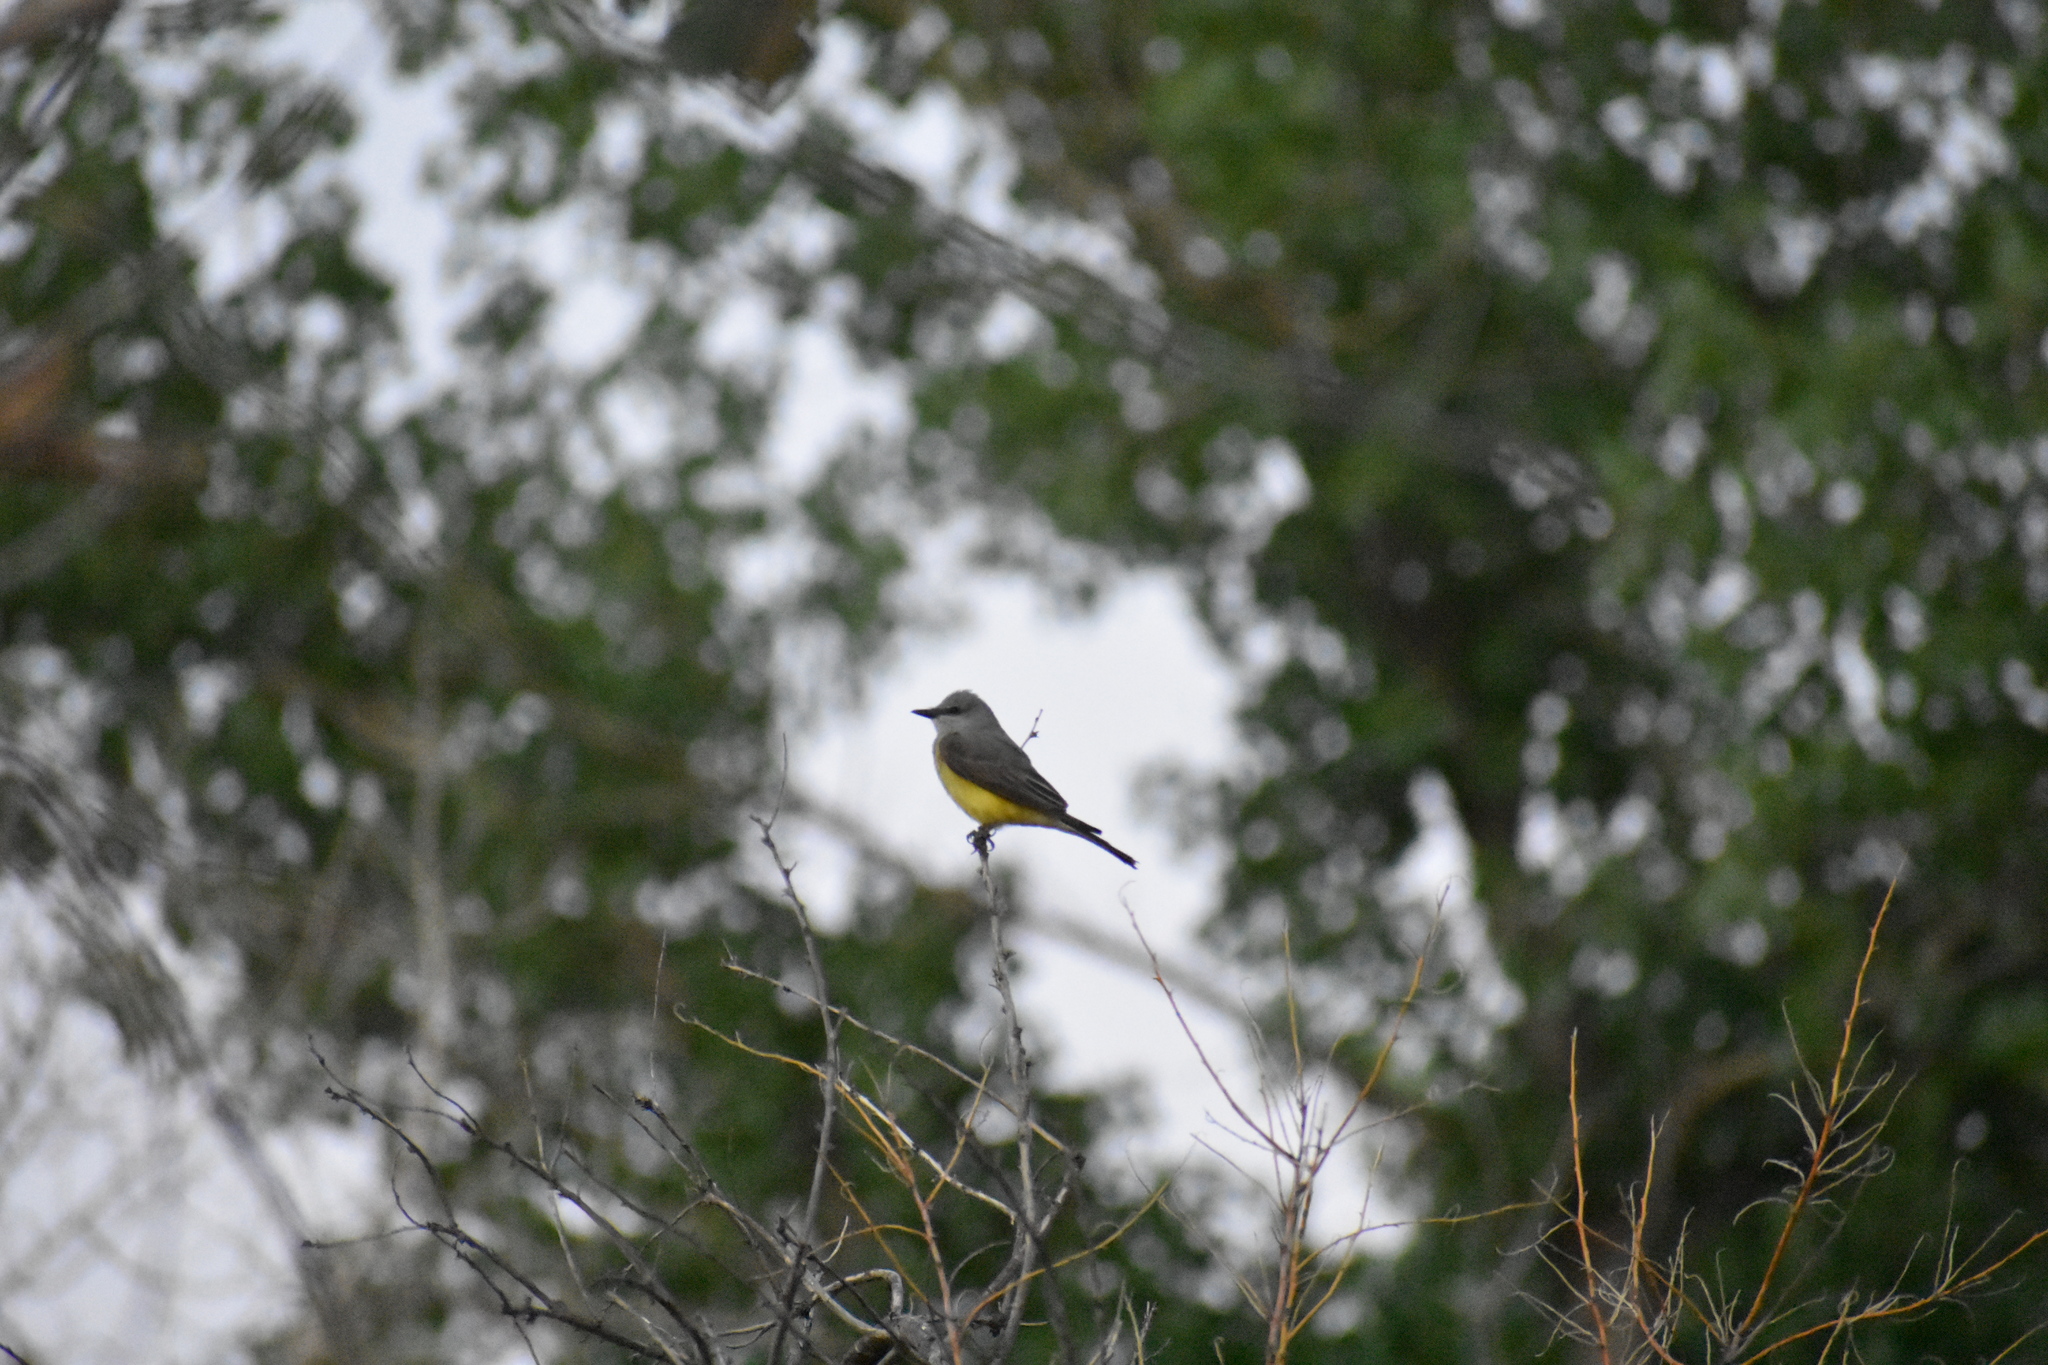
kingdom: Animalia
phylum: Chordata
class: Aves
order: Passeriformes
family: Tyrannidae
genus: Tyrannus
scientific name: Tyrannus verticalis
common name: Western kingbird
